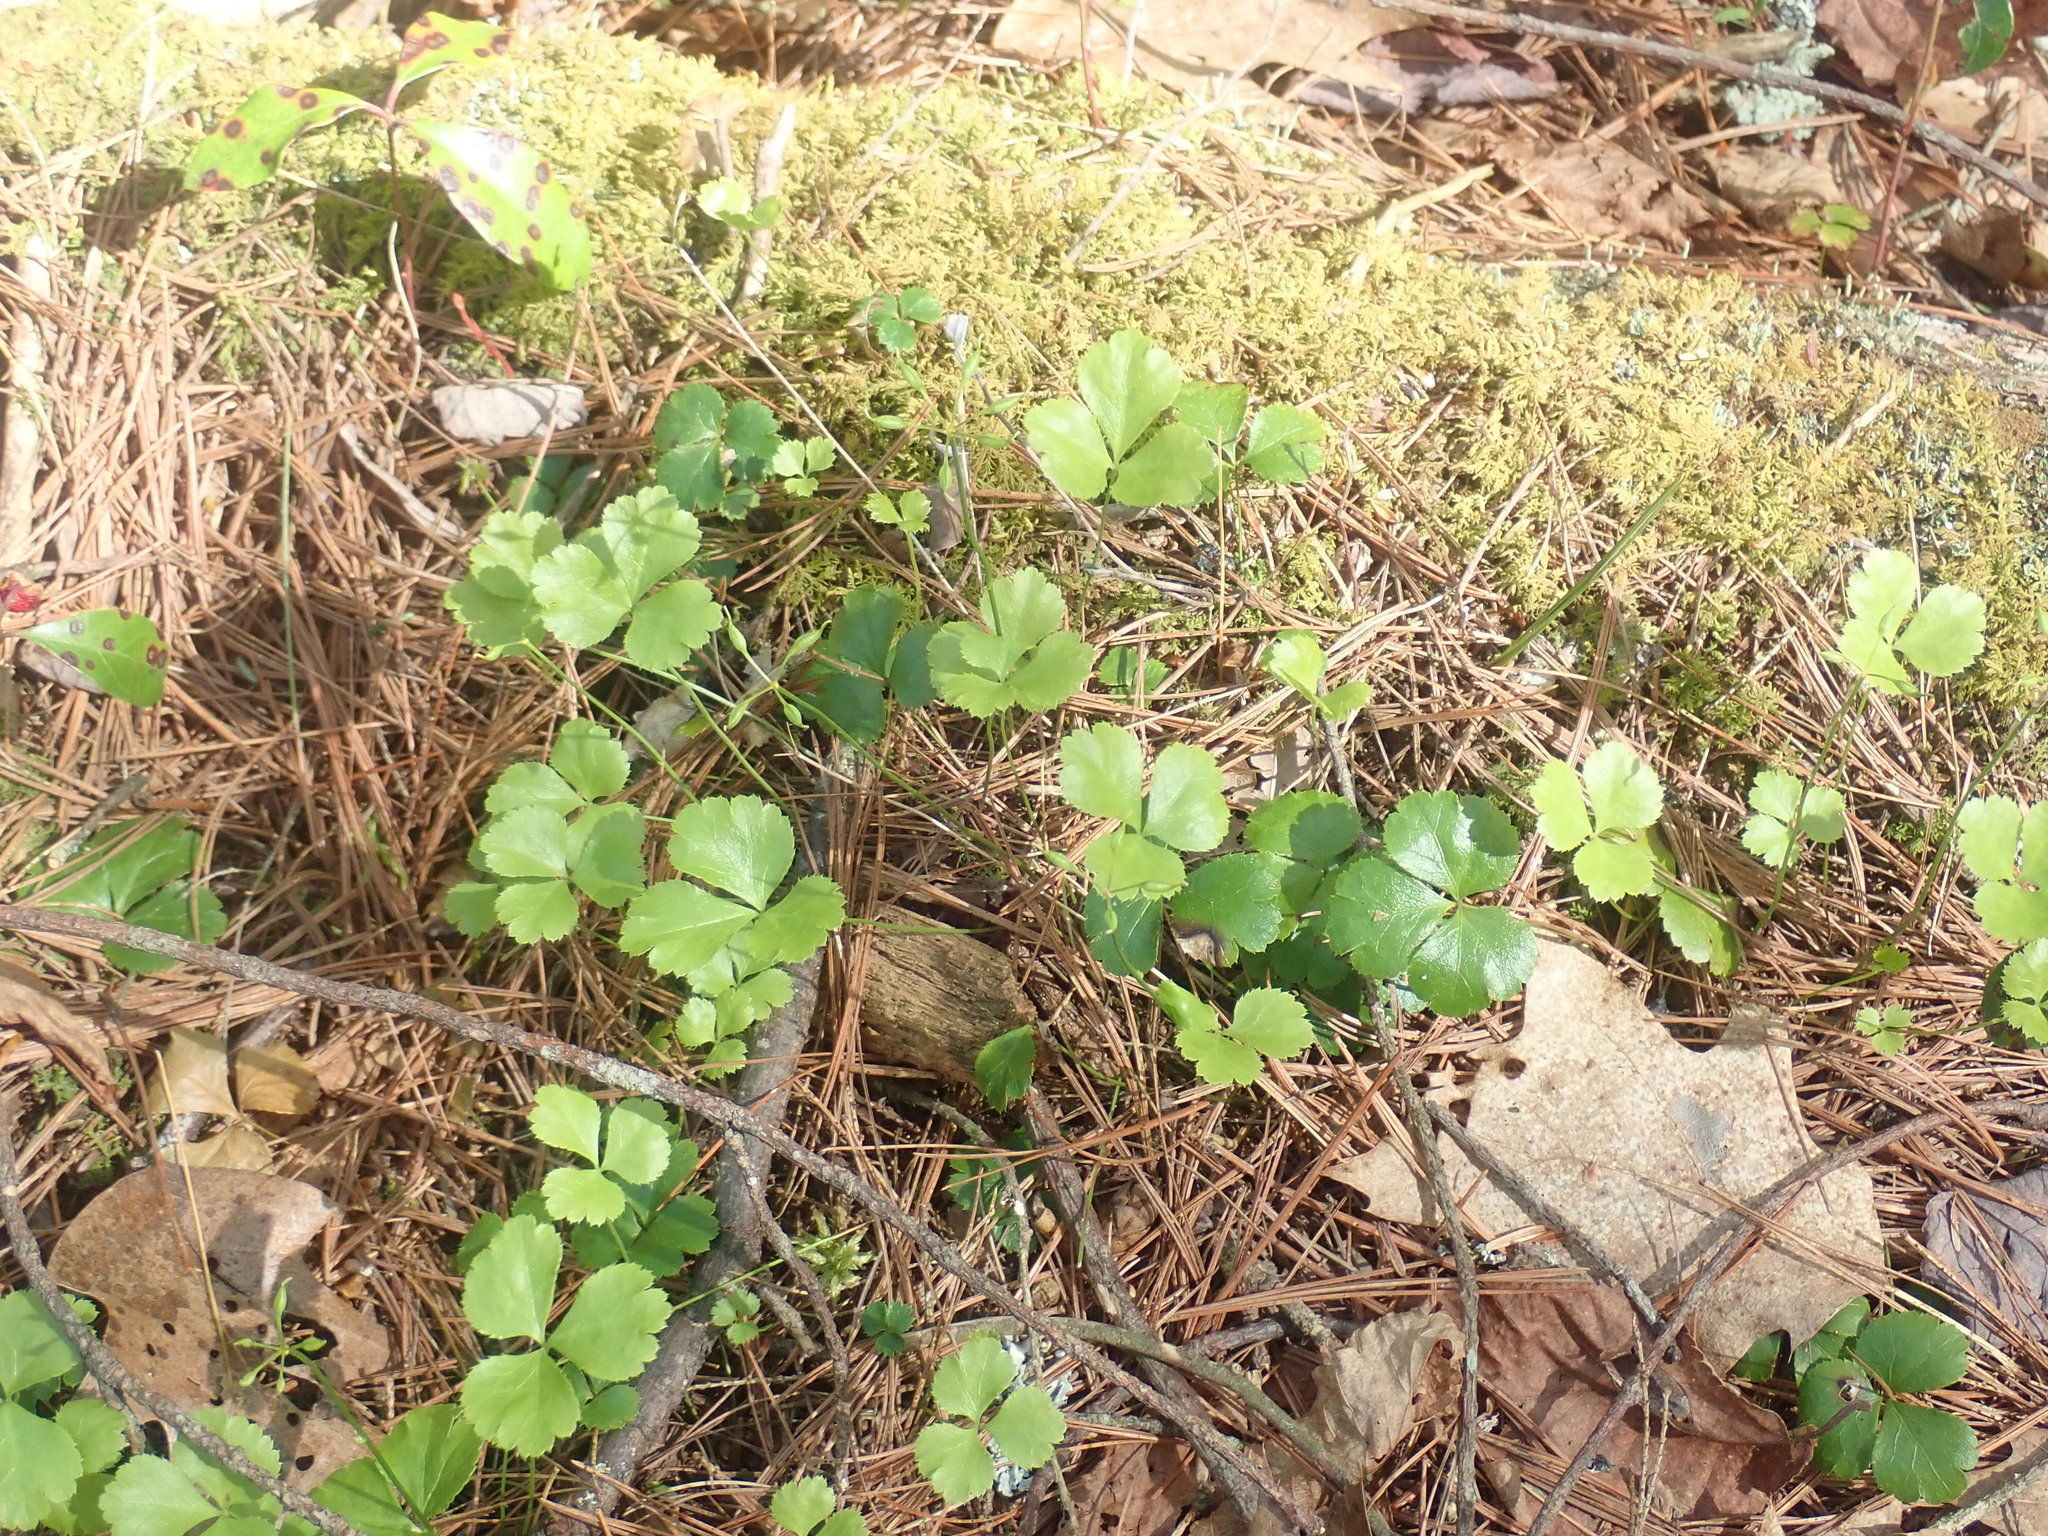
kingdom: Plantae
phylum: Tracheophyta
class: Magnoliopsida
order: Ranunculales
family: Ranunculaceae
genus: Coptis
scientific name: Coptis trifolia
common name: Canker-root
